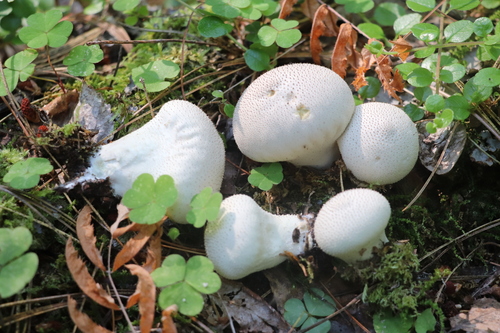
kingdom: Fungi
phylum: Basidiomycota
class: Agaricomycetes
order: Agaricales
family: Lycoperdaceae
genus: Lycoperdon
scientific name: Lycoperdon perlatum
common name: Common puffball
